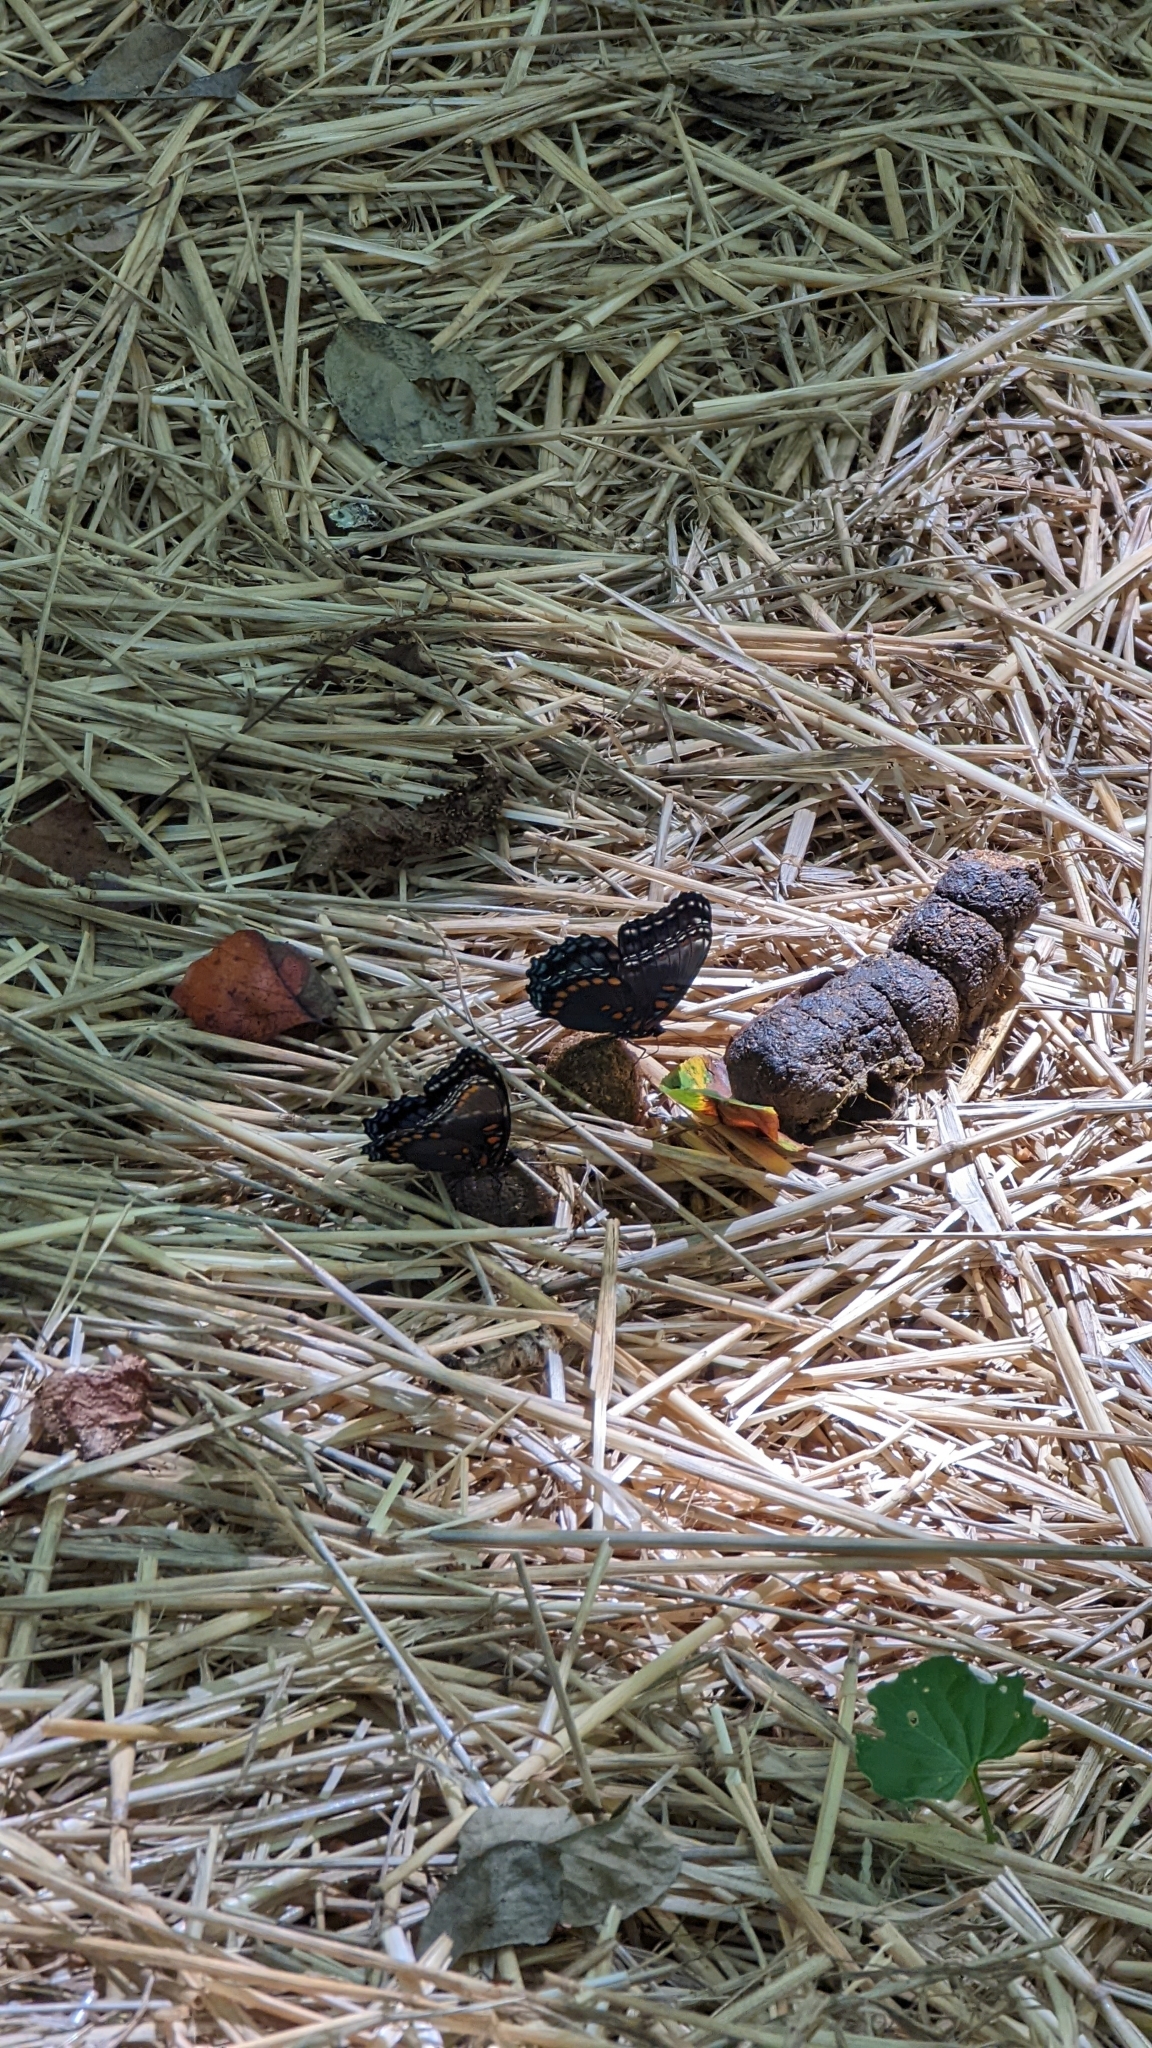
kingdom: Animalia
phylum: Arthropoda
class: Insecta
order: Lepidoptera
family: Nymphalidae
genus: Limenitis
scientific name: Limenitis astyanax
